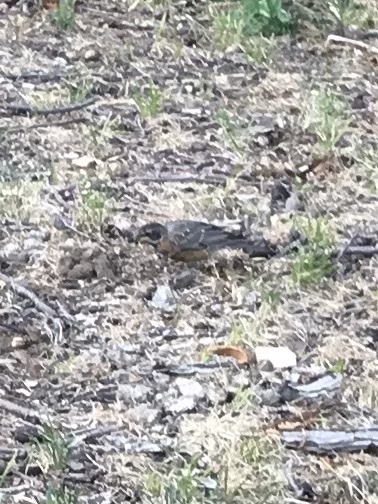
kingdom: Animalia
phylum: Chordata
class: Aves
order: Passeriformes
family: Turdidae
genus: Turdus
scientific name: Turdus migratorius
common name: American robin
